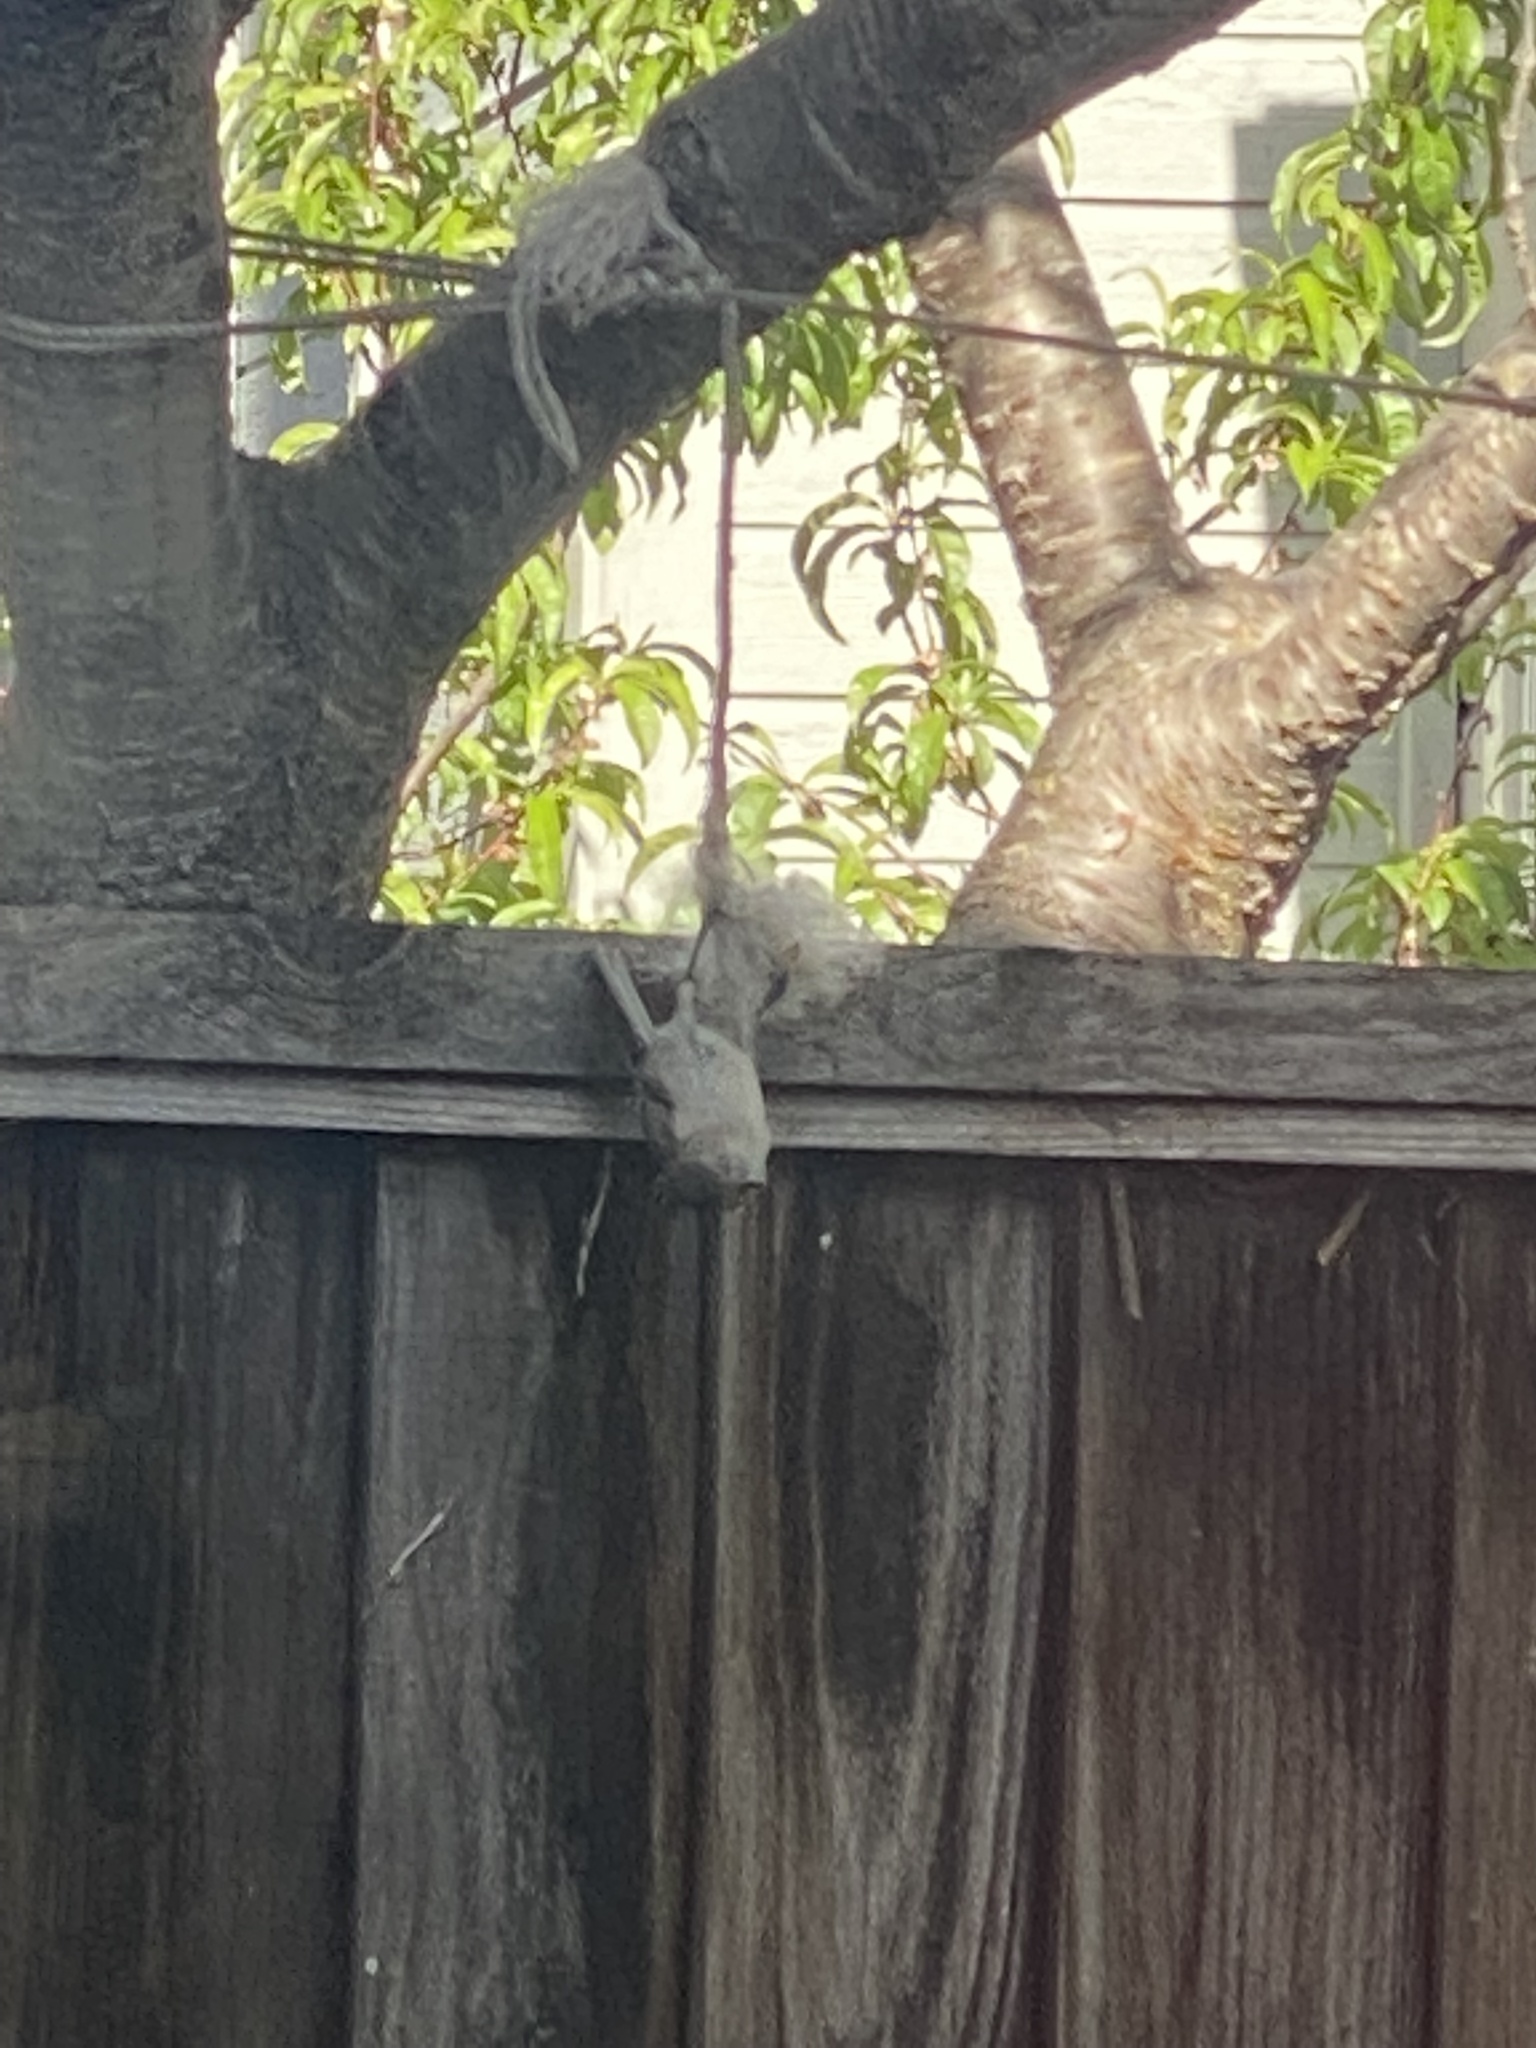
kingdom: Animalia
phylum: Chordata
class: Aves
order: Passeriformes
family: Paridae
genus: Baeolophus
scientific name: Baeolophus inornatus
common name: Oak titmouse
